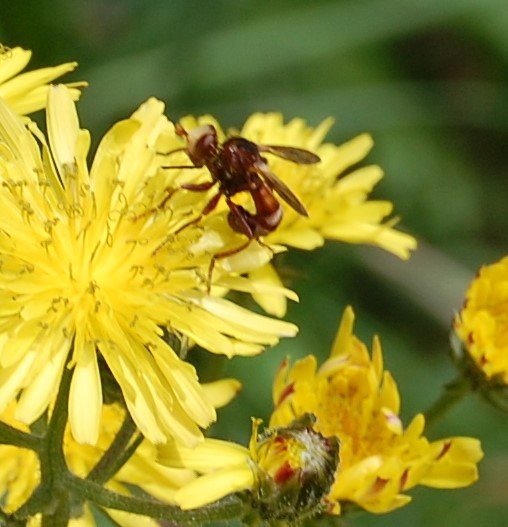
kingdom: Animalia
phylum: Arthropoda
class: Insecta
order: Diptera
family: Conopidae
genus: Sicus
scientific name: Sicus ferrugineus
